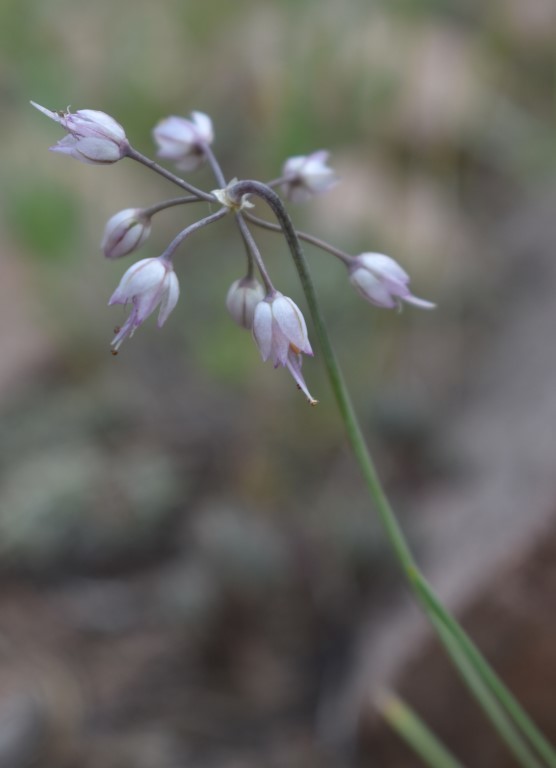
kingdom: Plantae
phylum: Tracheophyta
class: Liliopsida
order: Asparagales
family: Amaryllidaceae
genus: Allium
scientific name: Allium cernuum
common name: Nodding onion
